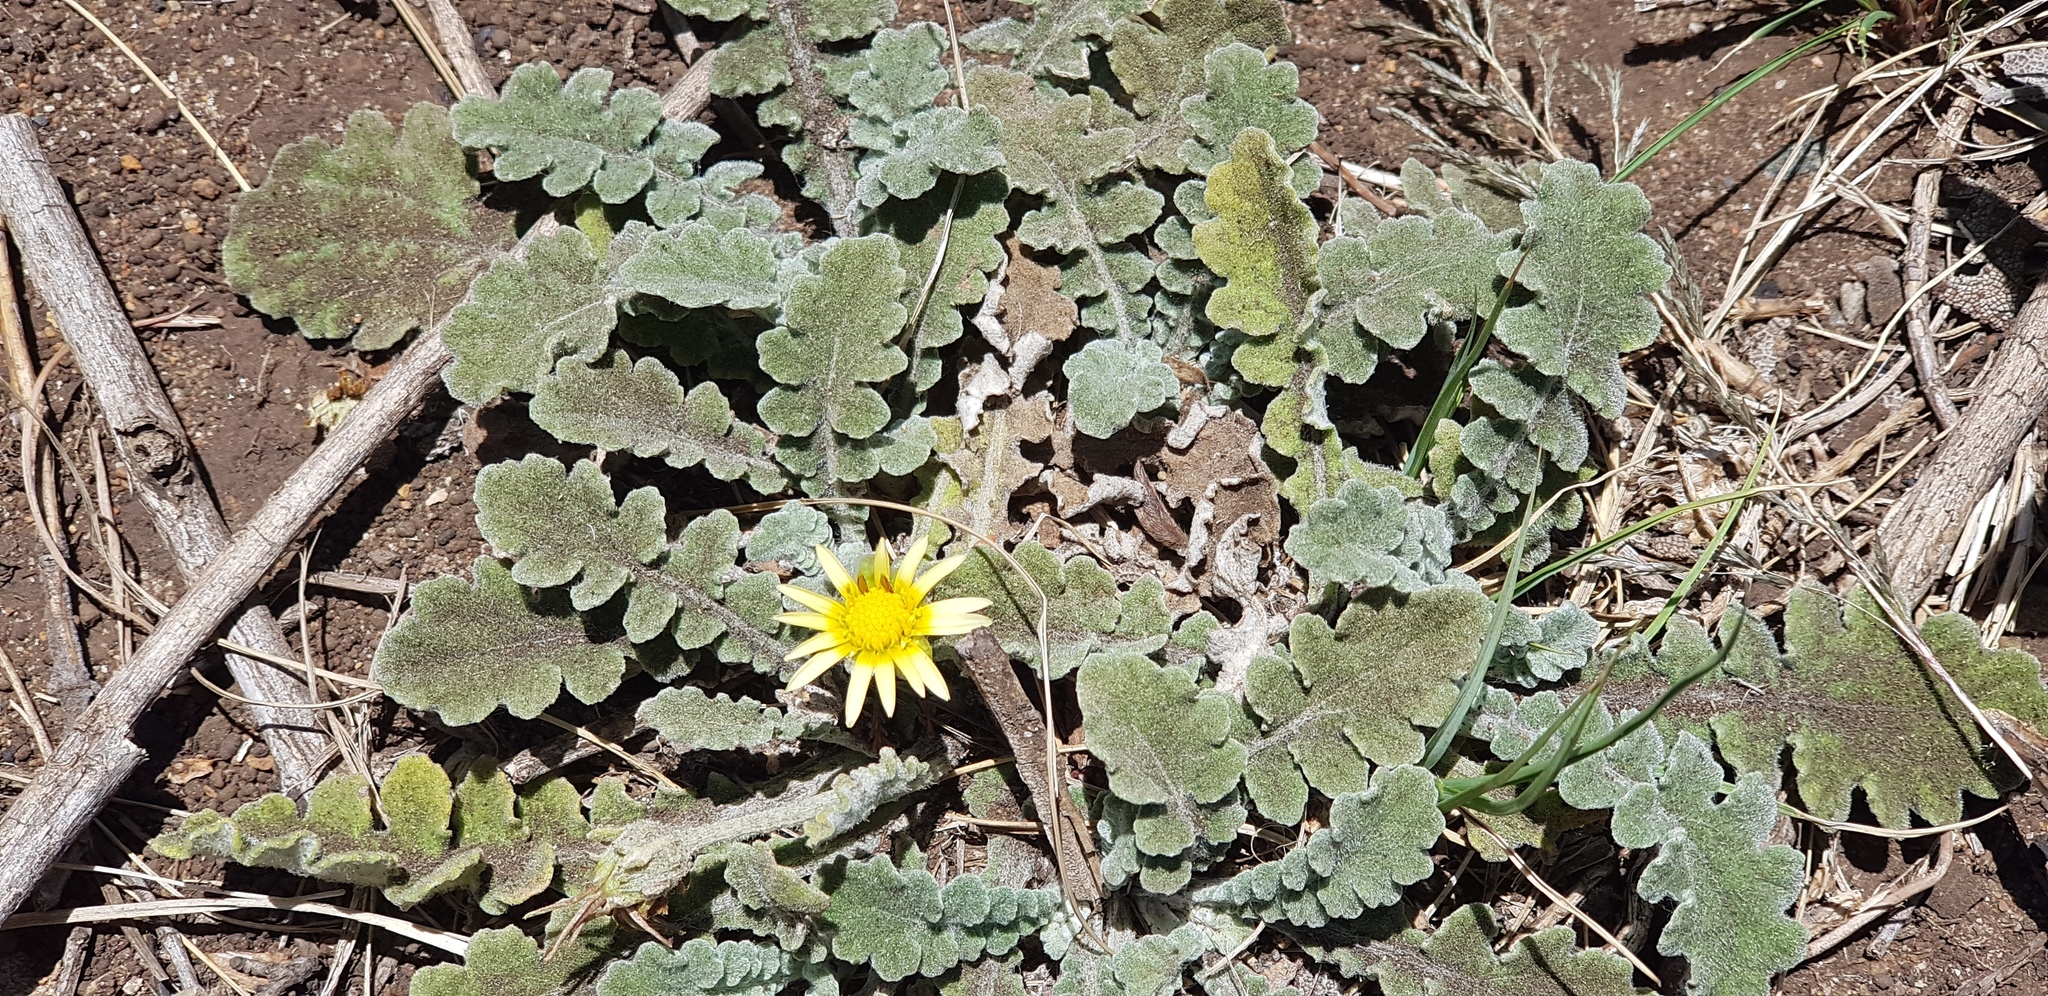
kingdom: Plantae
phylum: Tracheophyta
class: Magnoliopsida
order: Asterales
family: Asteraceae
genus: Arctotheca
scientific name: Arctotheca prostrata
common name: Capeweed
